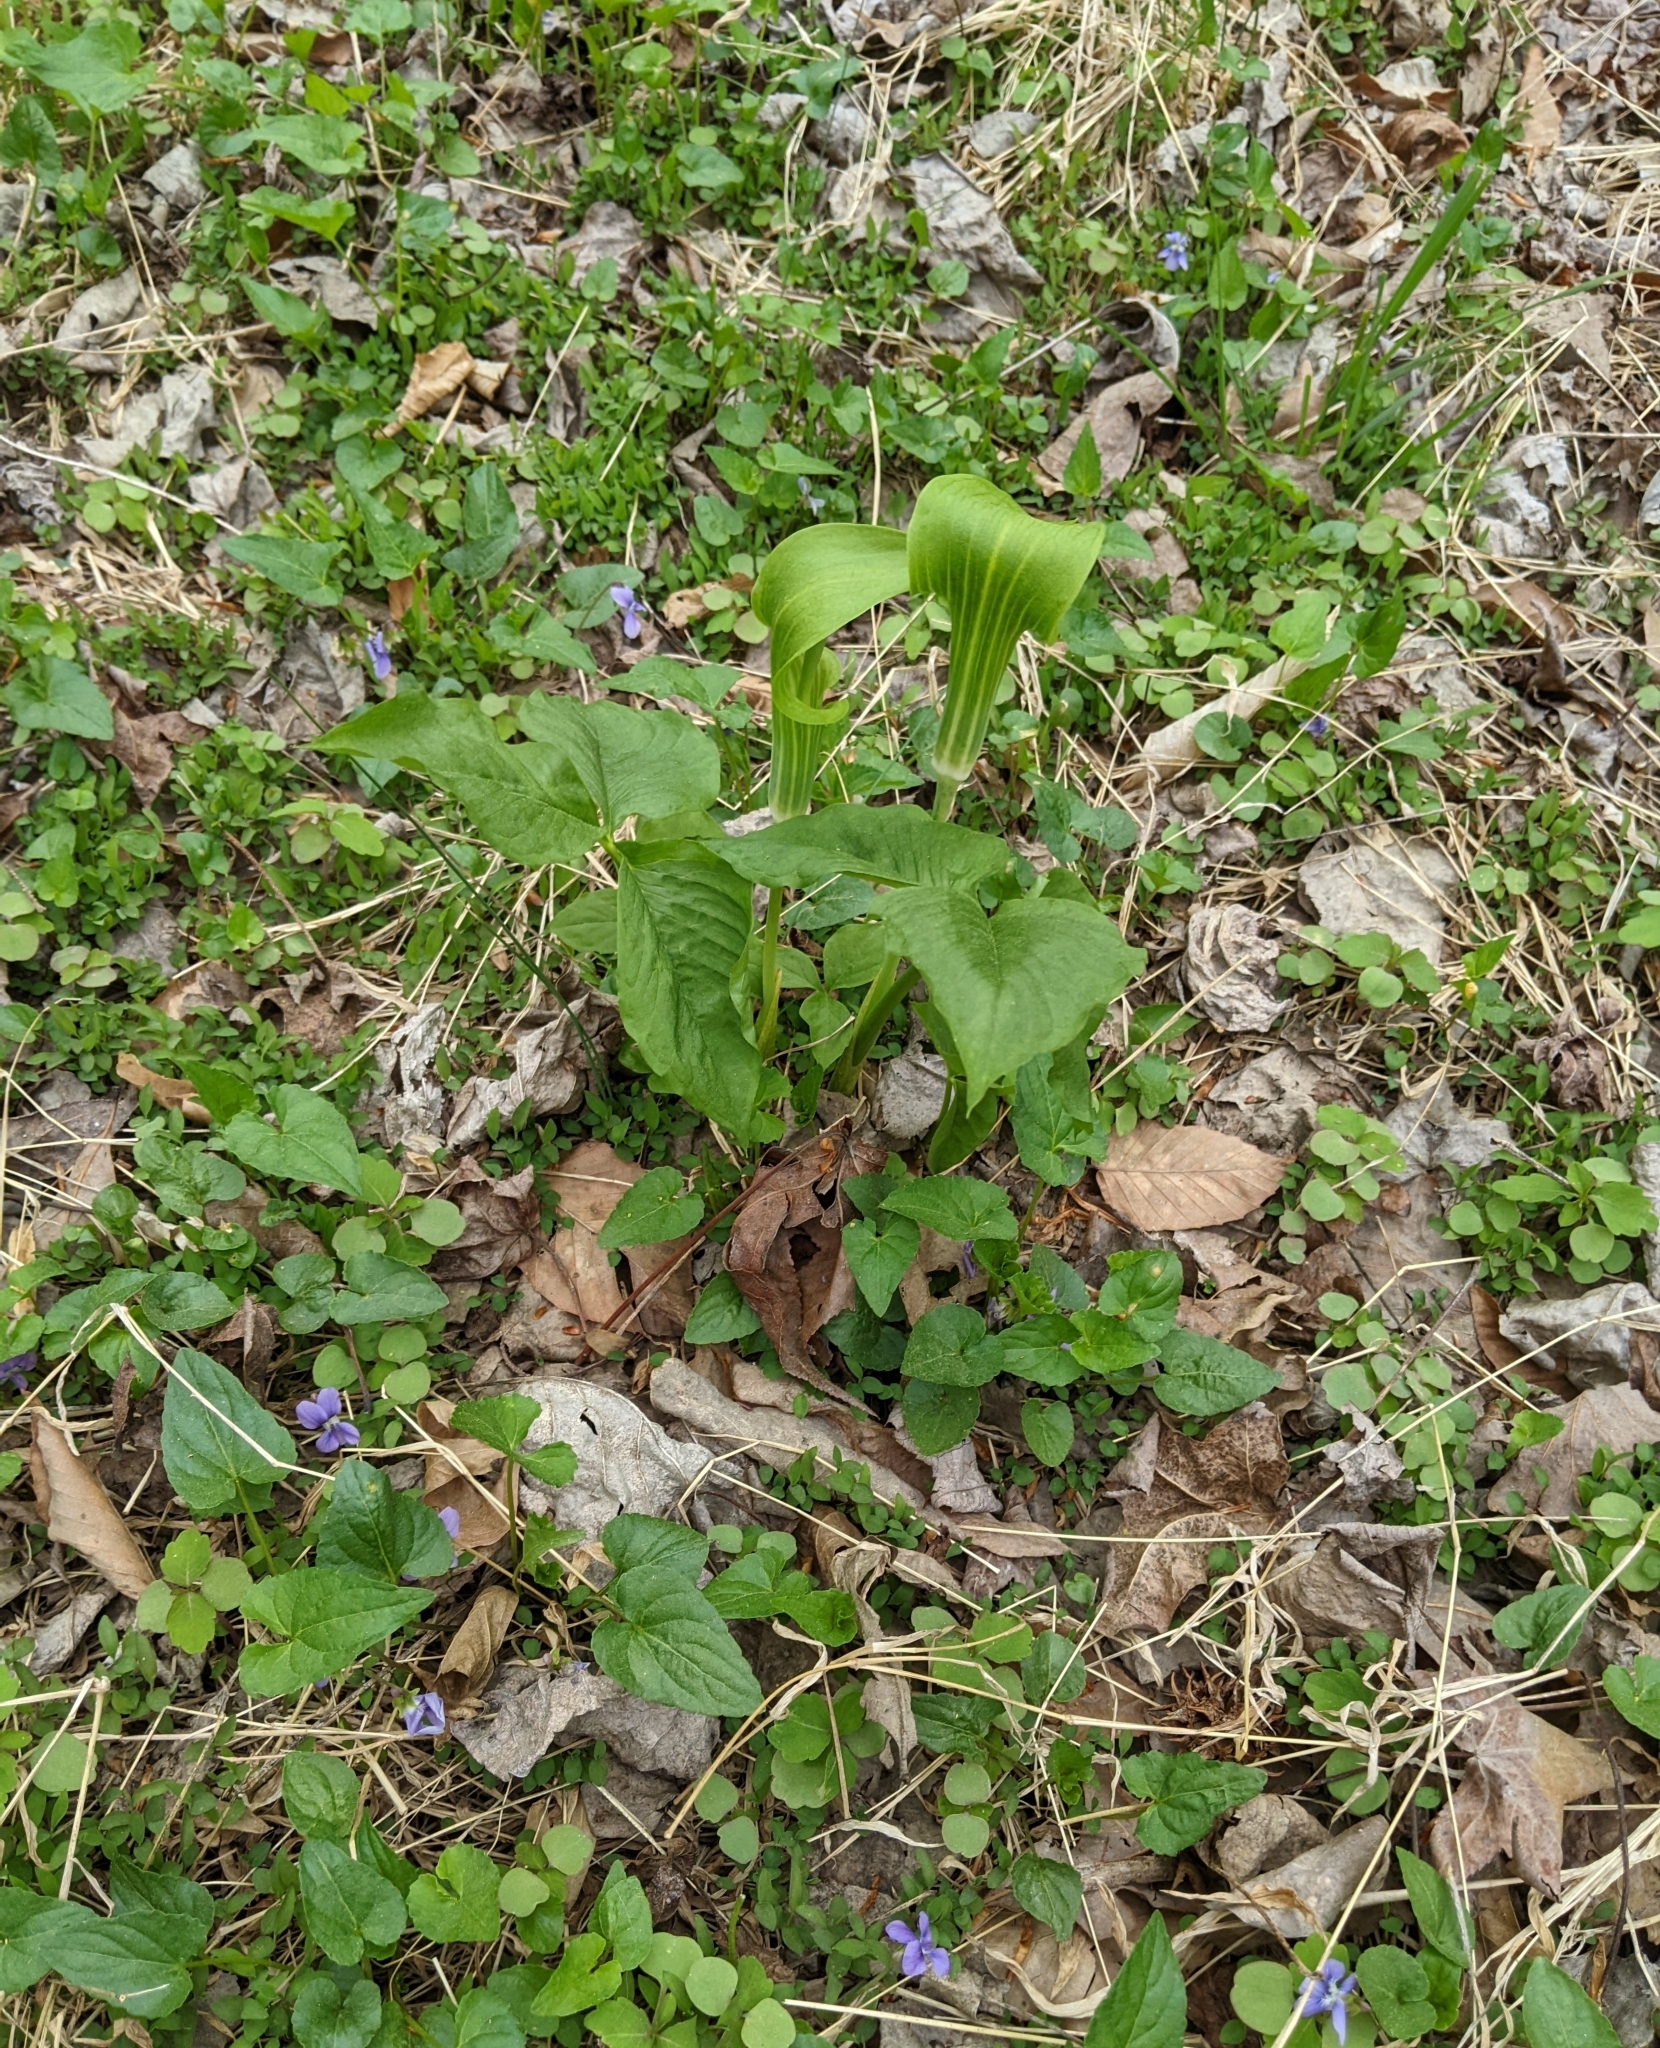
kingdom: Plantae
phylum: Tracheophyta
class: Liliopsida
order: Alismatales
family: Araceae
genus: Arisaema
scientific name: Arisaema triphyllum
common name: Jack-in-the-pulpit
